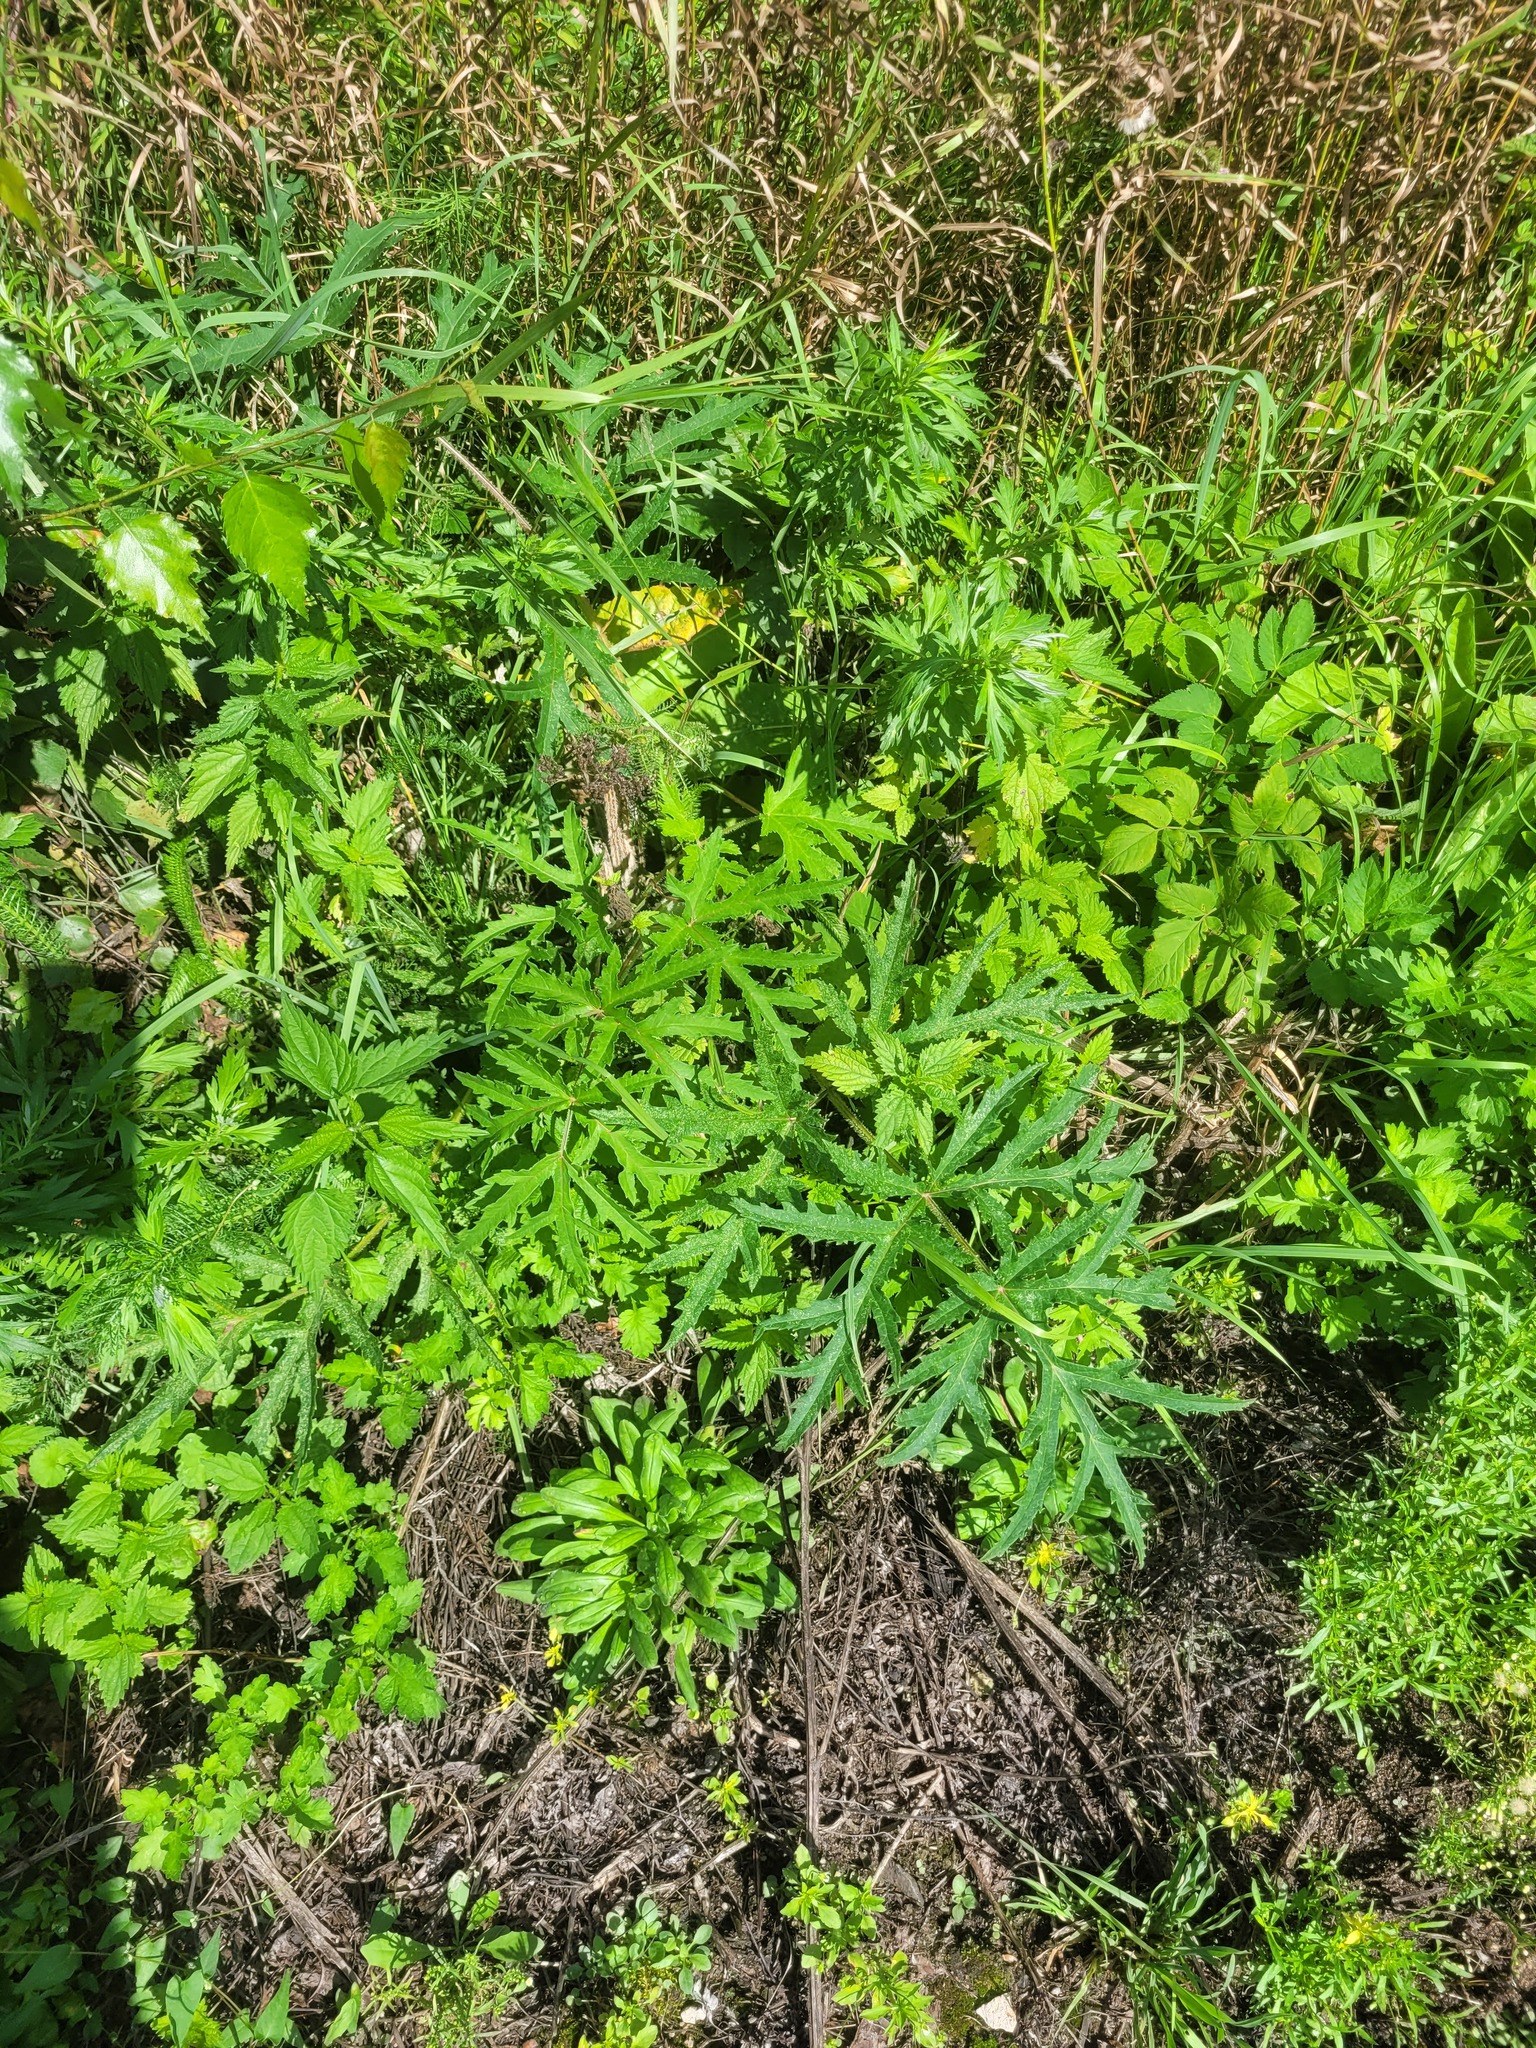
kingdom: Plantae
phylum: Tracheophyta
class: Magnoliopsida
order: Apiales
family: Apiaceae
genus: Heracleum
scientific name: Heracleum sphondylium
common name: Hogweed
